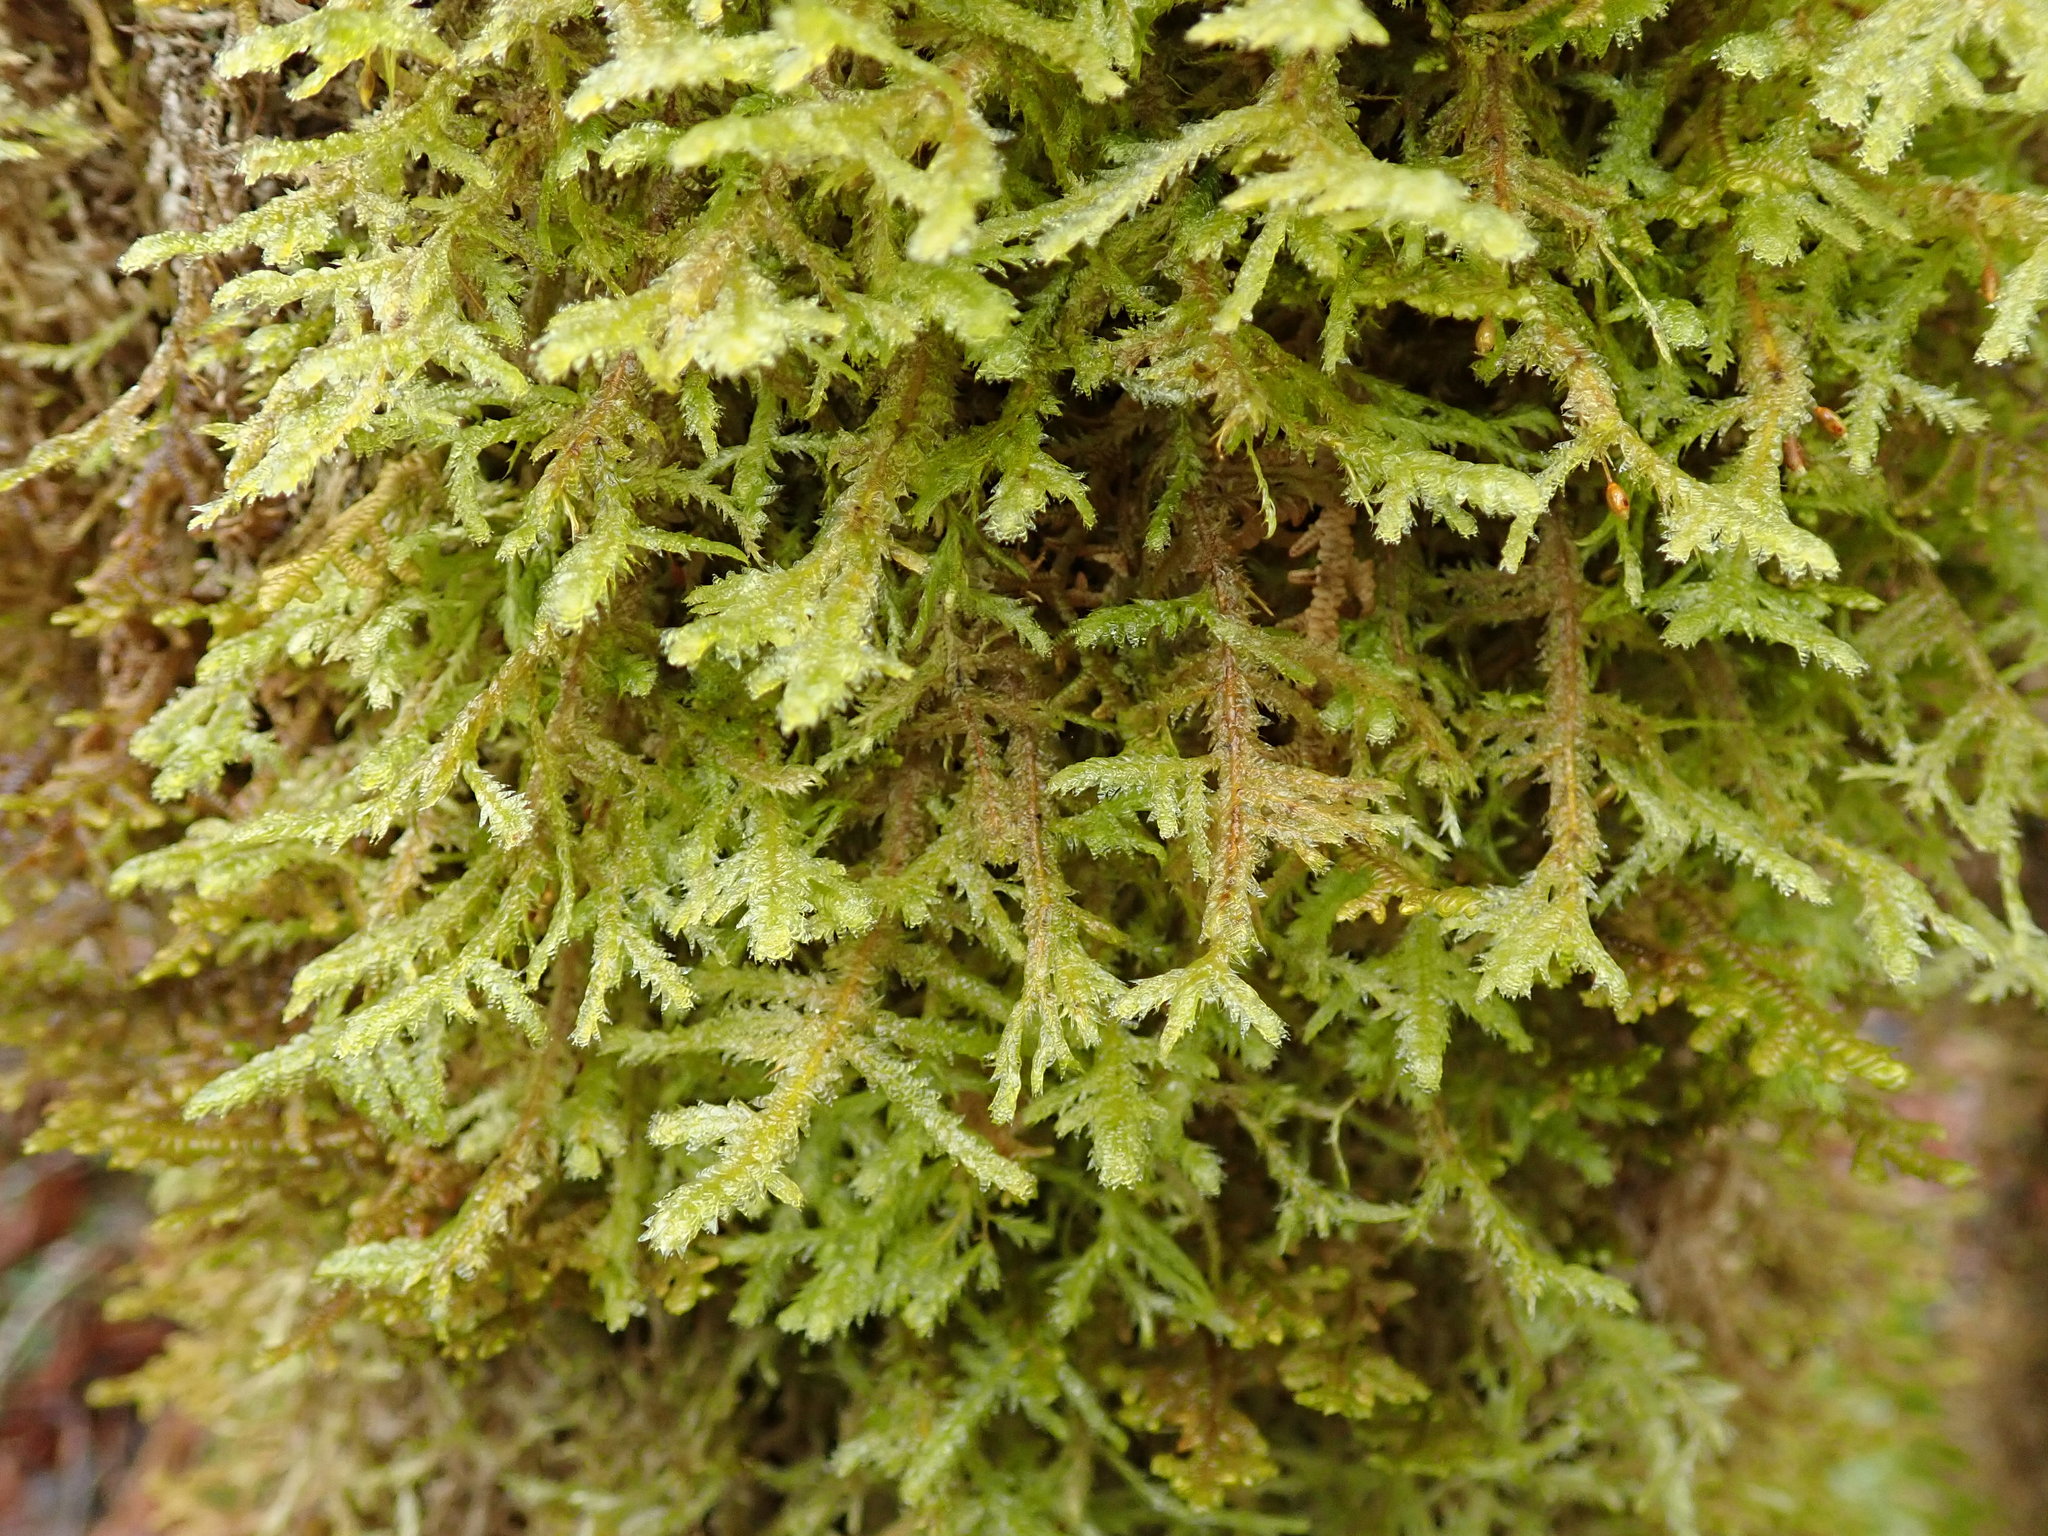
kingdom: Plantae
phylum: Bryophyta
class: Bryopsida
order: Hypnales
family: Neckeraceae
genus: Neckera
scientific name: Neckera douglasii
